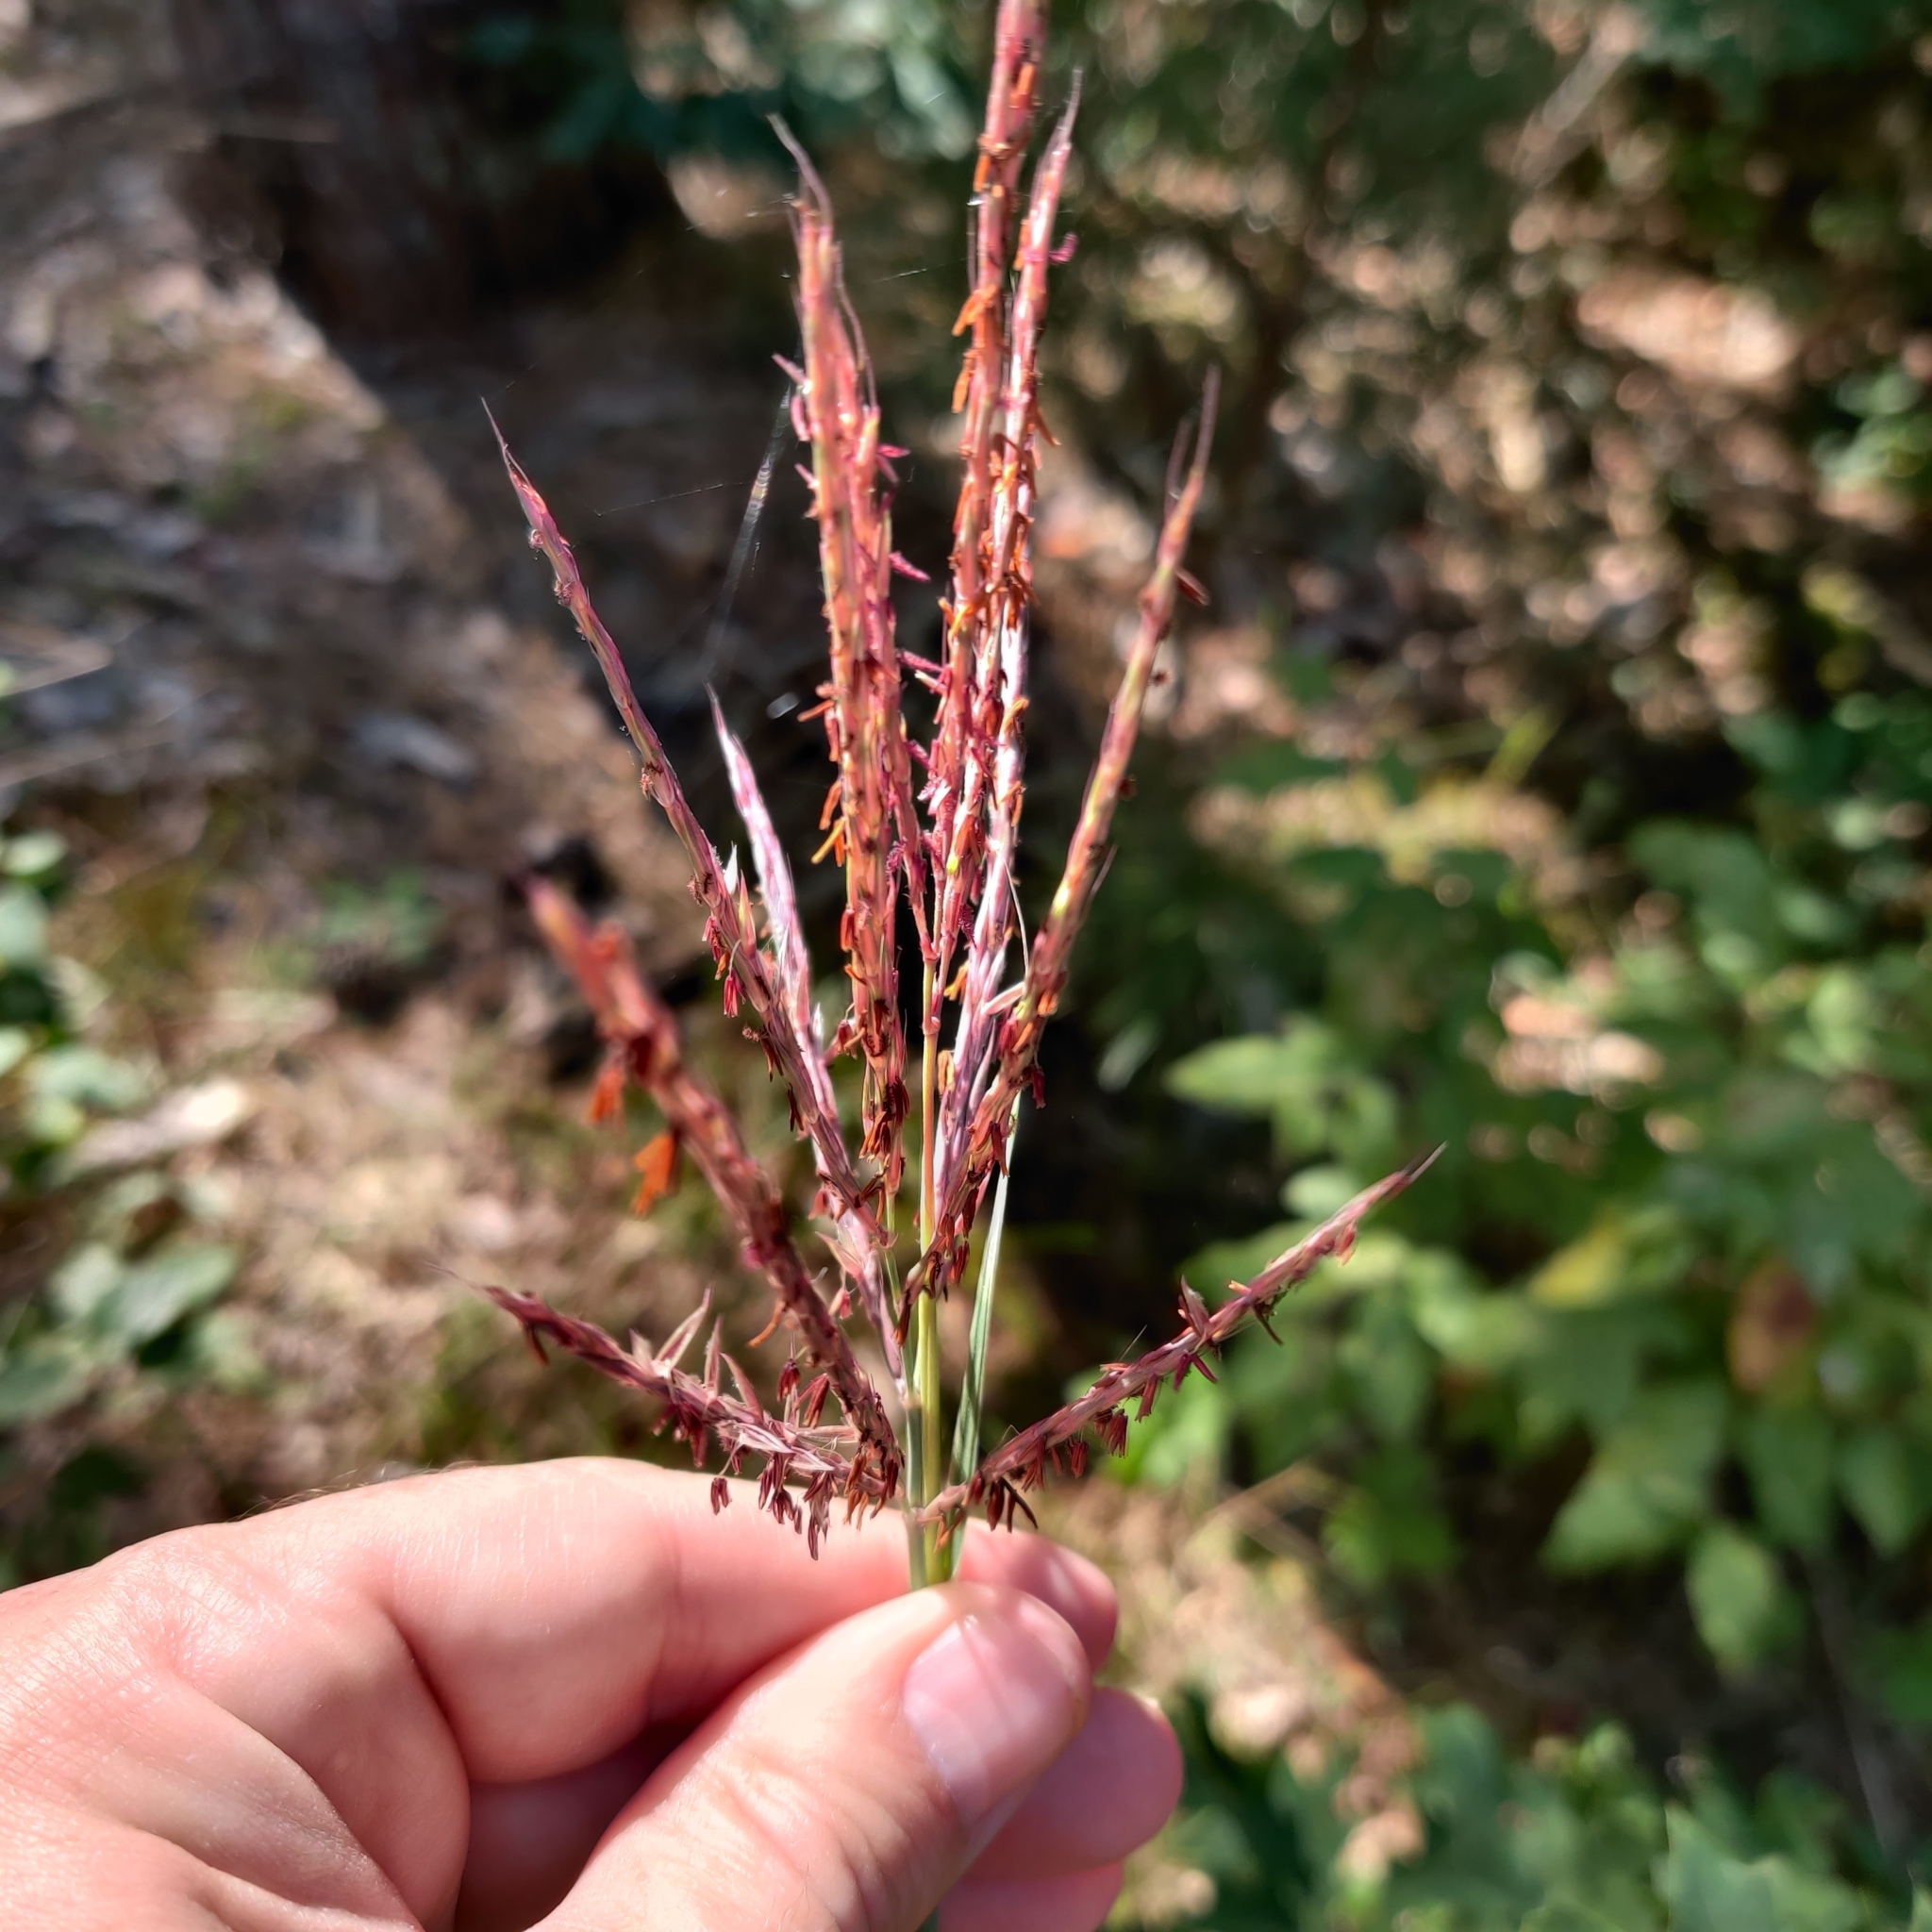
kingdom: Plantae
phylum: Tracheophyta
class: Liliopsida
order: Poales
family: Poaceae
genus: Andropogon
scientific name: Andropogon gerardi
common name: Big bluestem
